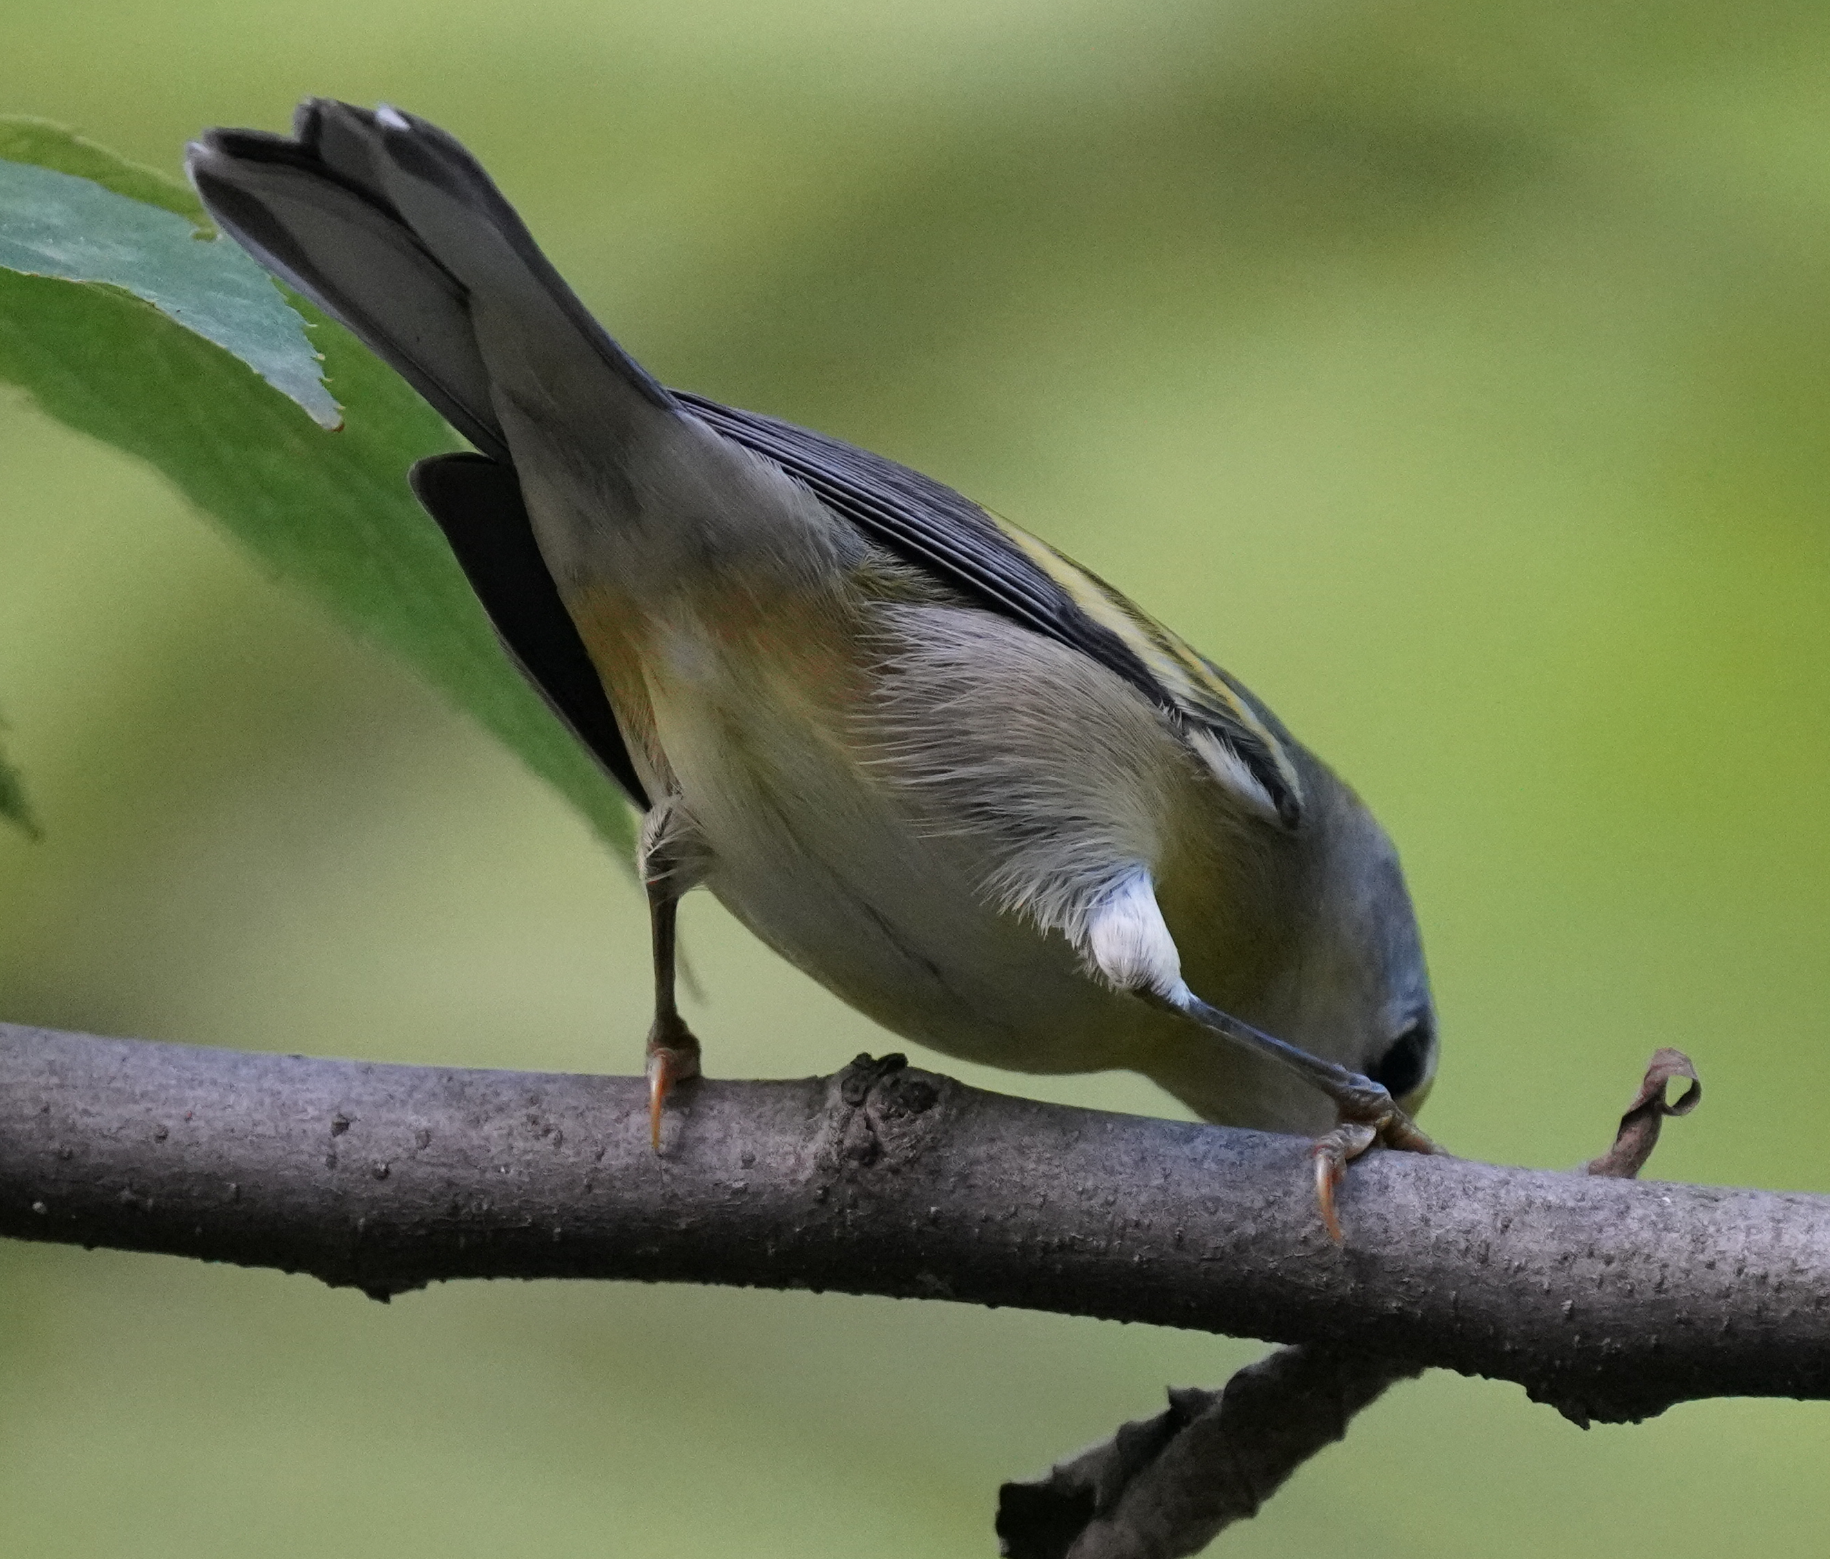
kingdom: Animalia
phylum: Chordata
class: Aves
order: Passeriformes
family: Parulidae
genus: Setophaga
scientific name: Setophaga pensylvanica
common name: Chestnut-sided warbler
